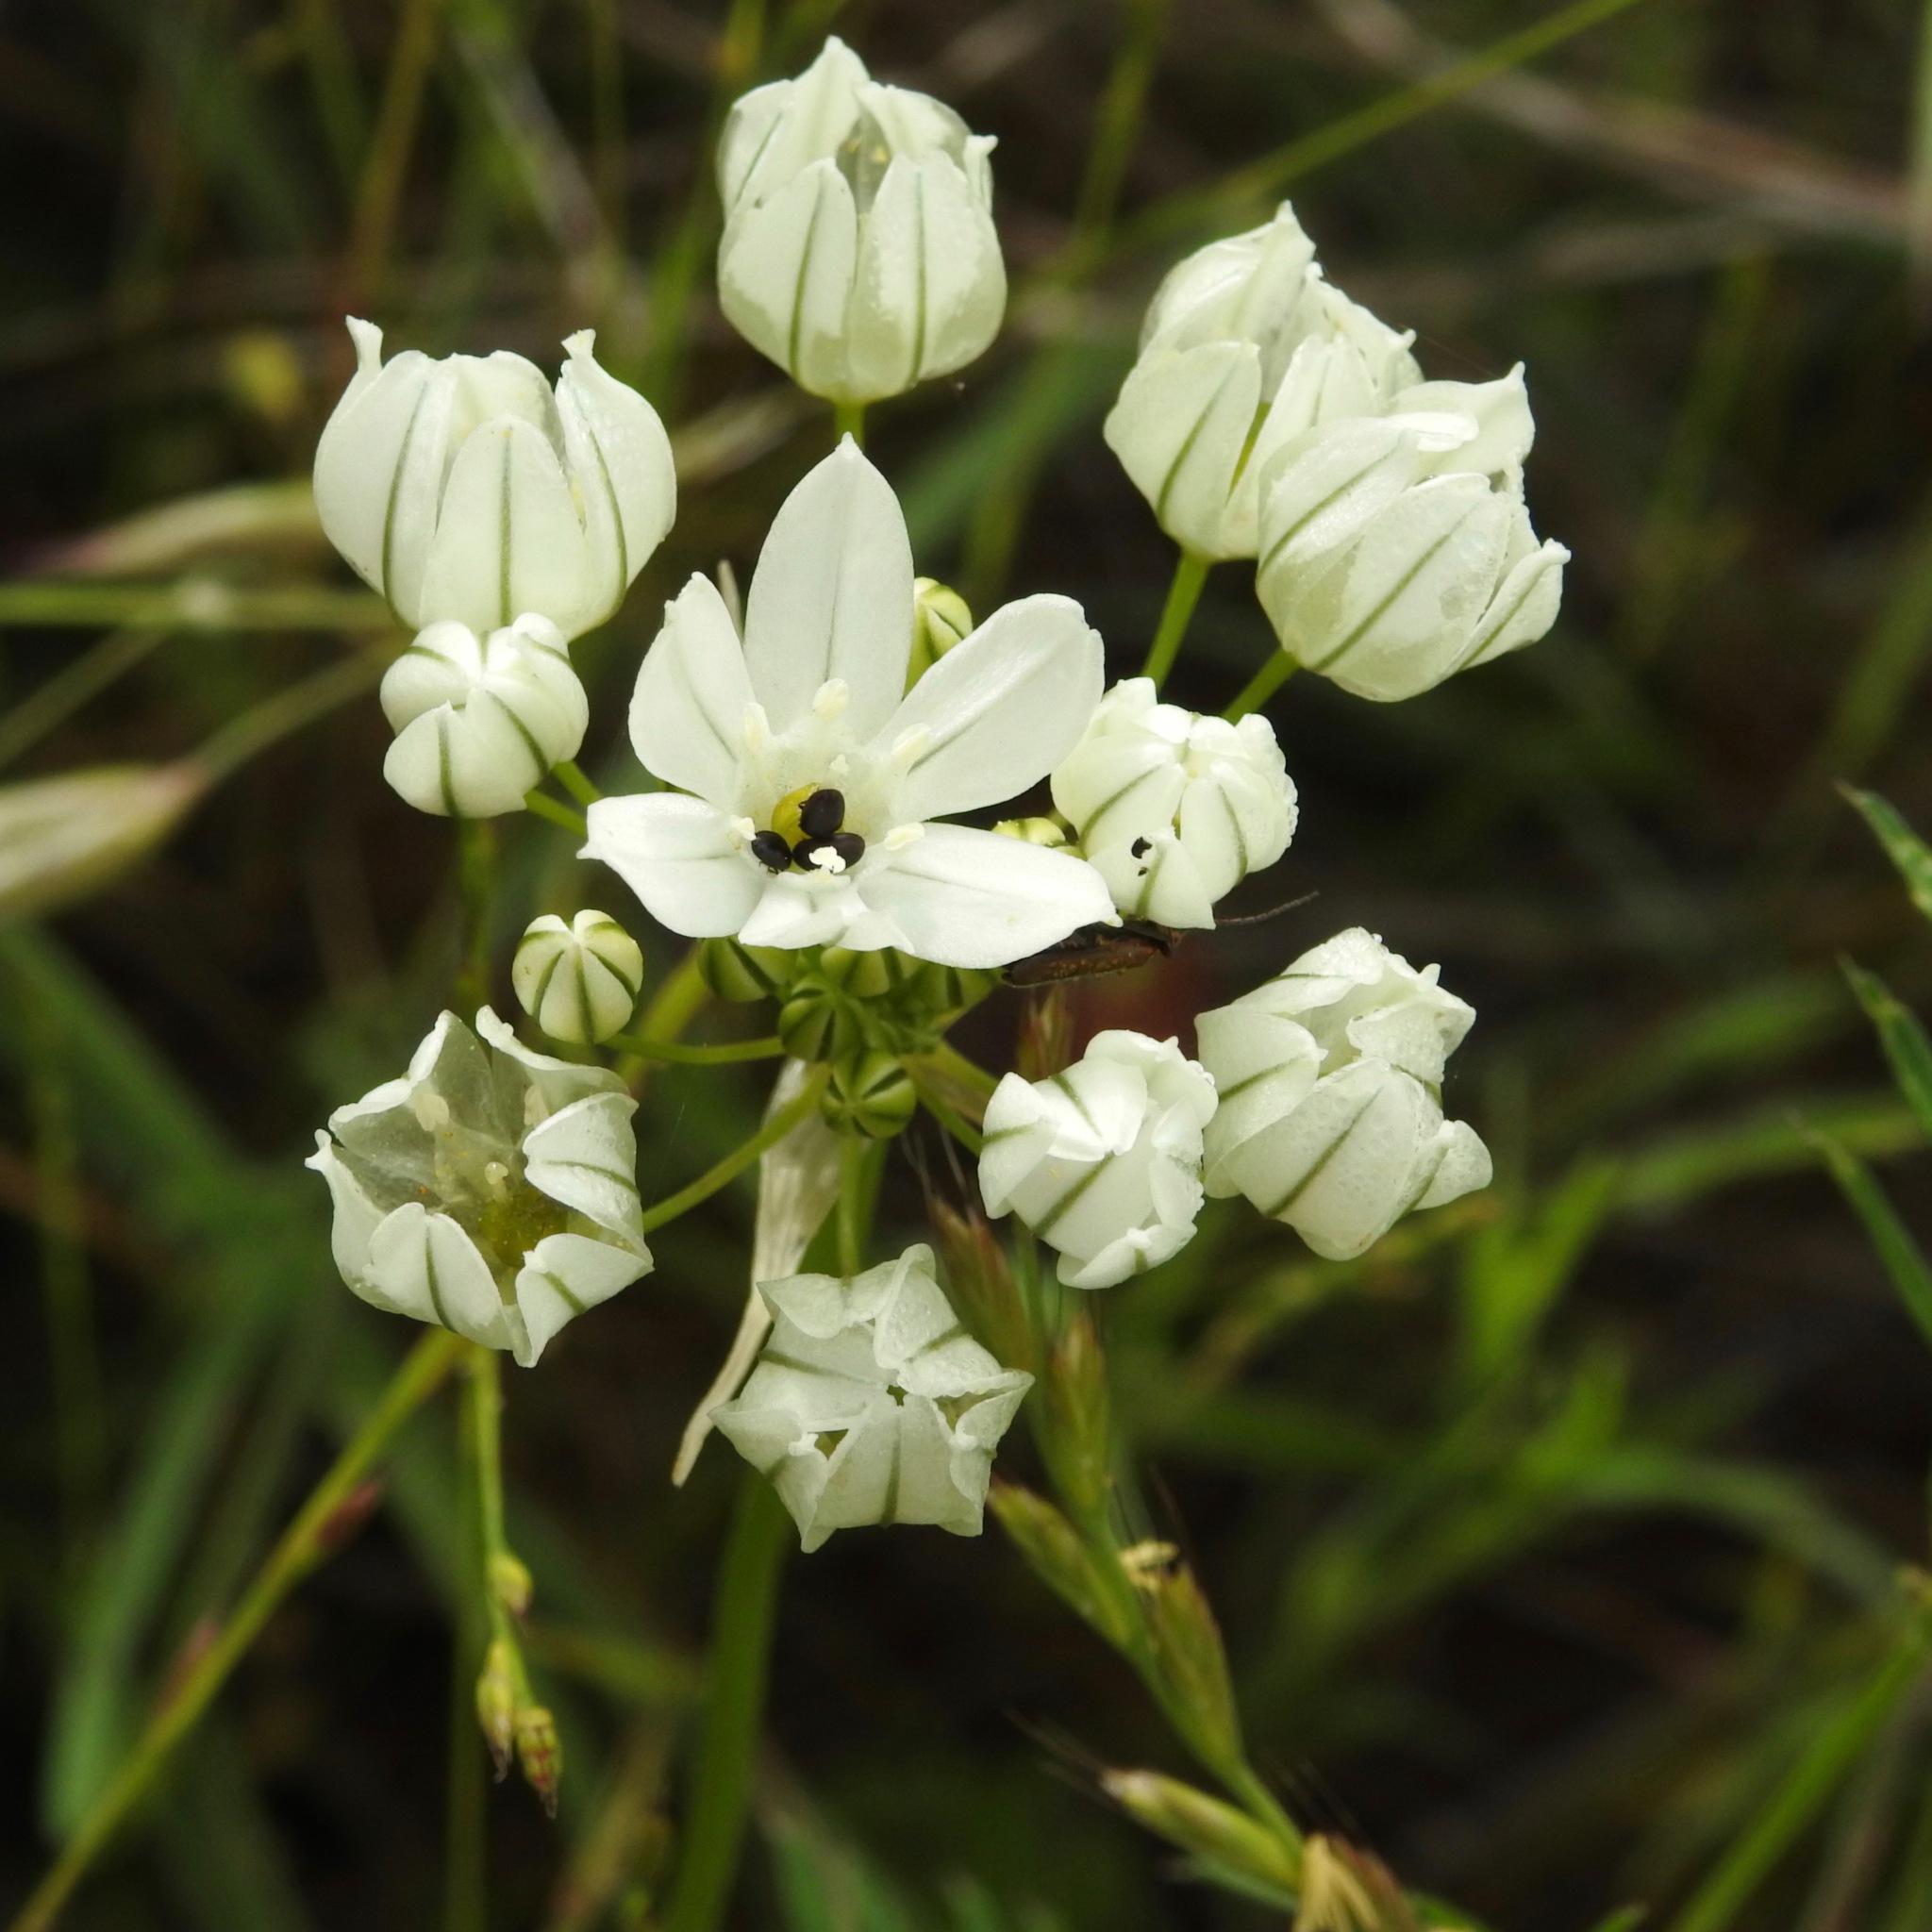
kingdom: Plantae
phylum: Tracheophyta
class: Liliopsida
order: Asparagales
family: Asparagaceae
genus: Triteleia
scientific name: Triteleia hyacinthina
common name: White brodiaea
